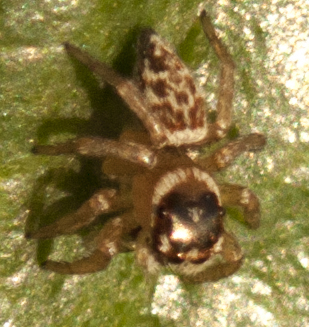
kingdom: Animalia
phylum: Arthropoda
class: Arachnida
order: Araneae
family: Salticidae
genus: Maratus
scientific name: Maratus griseus
